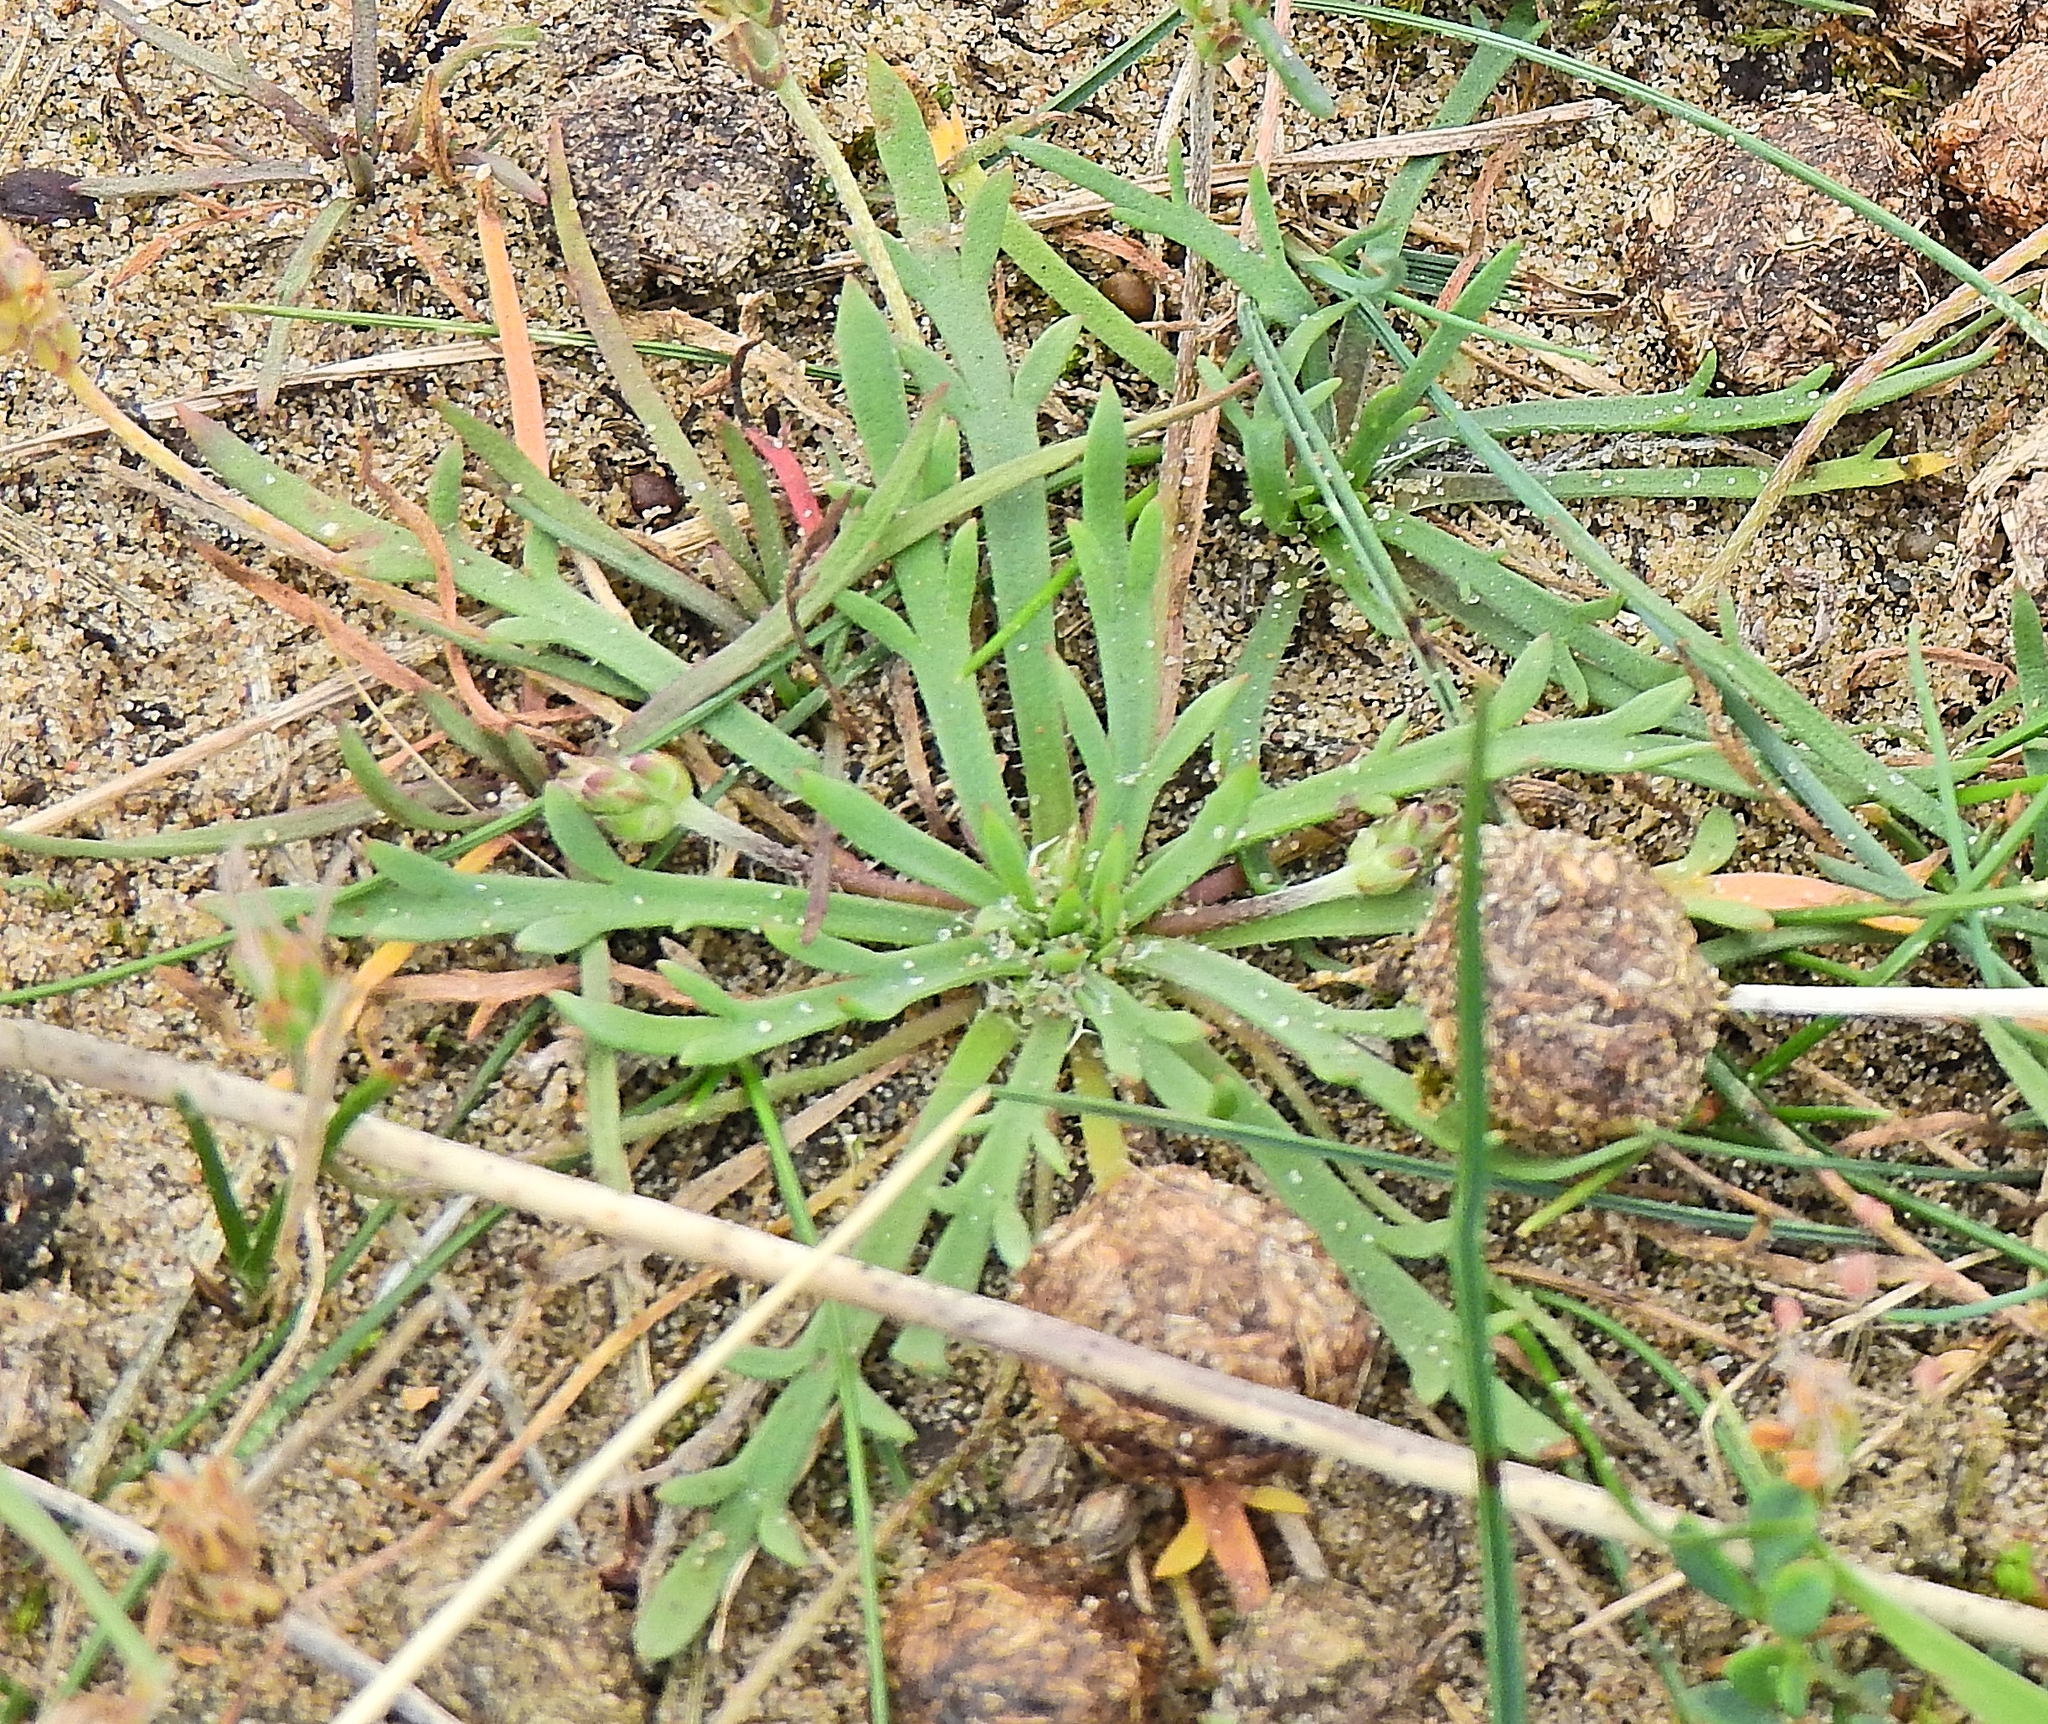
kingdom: Plantae
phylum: Tracheophyta
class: Magnoliopsida
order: Lamiales
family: Plantaginaceae
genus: Plantago
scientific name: Plantago coronopus
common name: Buck's-horn plantain
